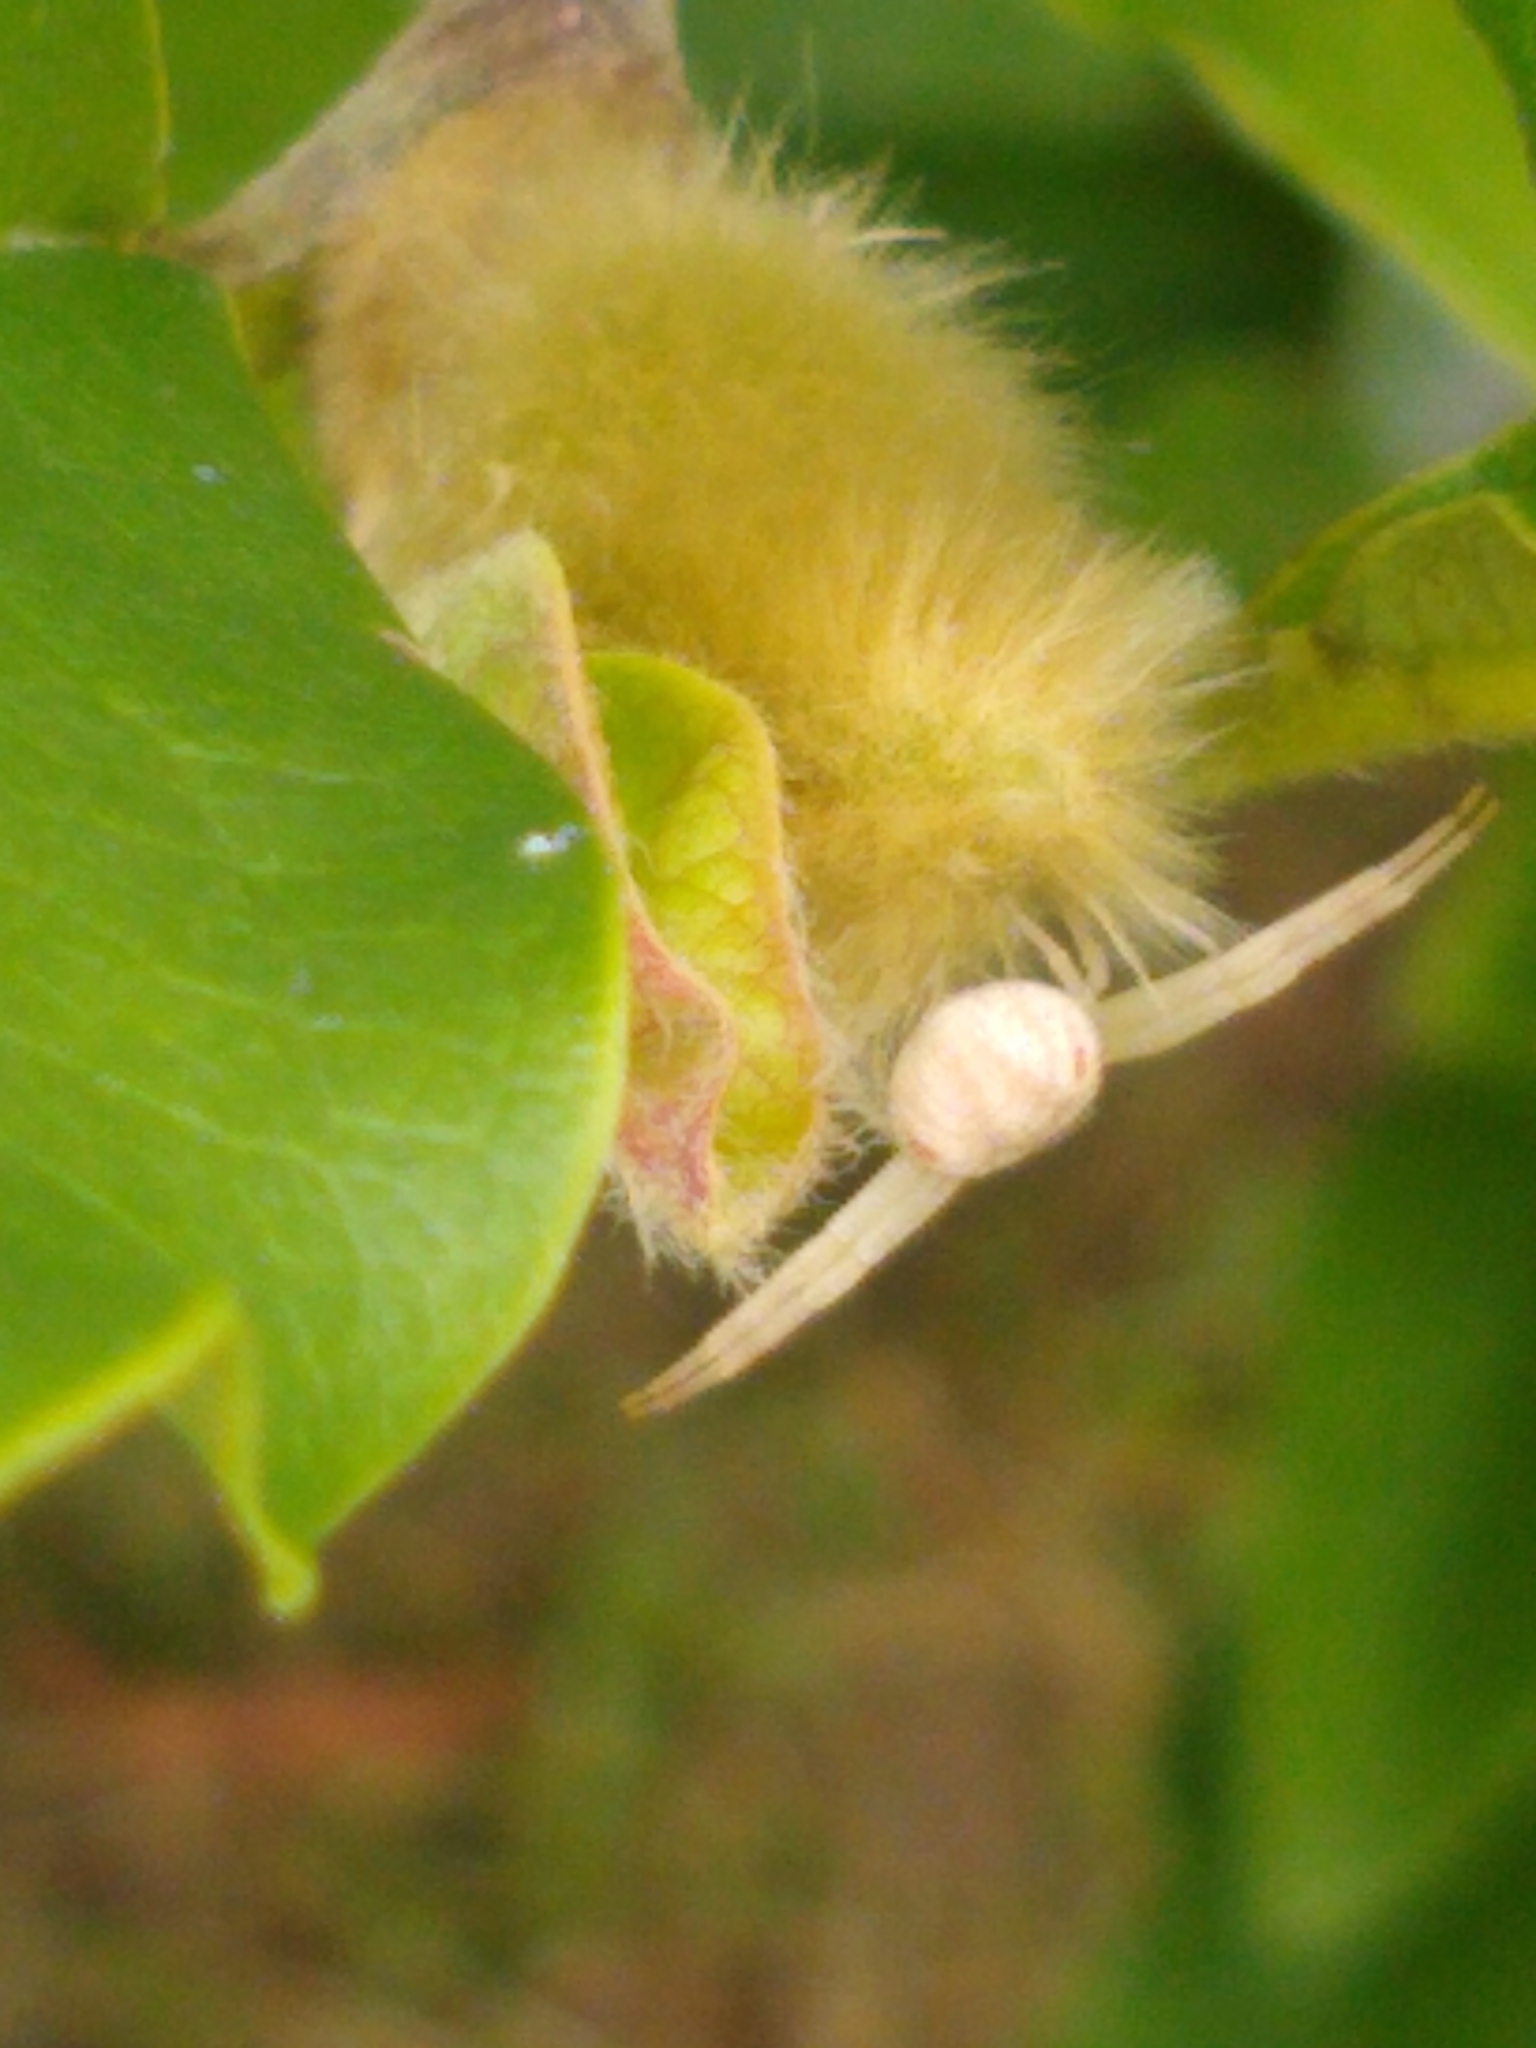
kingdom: Animalia
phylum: Arthropoda
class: Arachnida
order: Araneae
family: Thomisidae
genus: Misumena
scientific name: Misumena vatia
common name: Goldenrod crab spider
